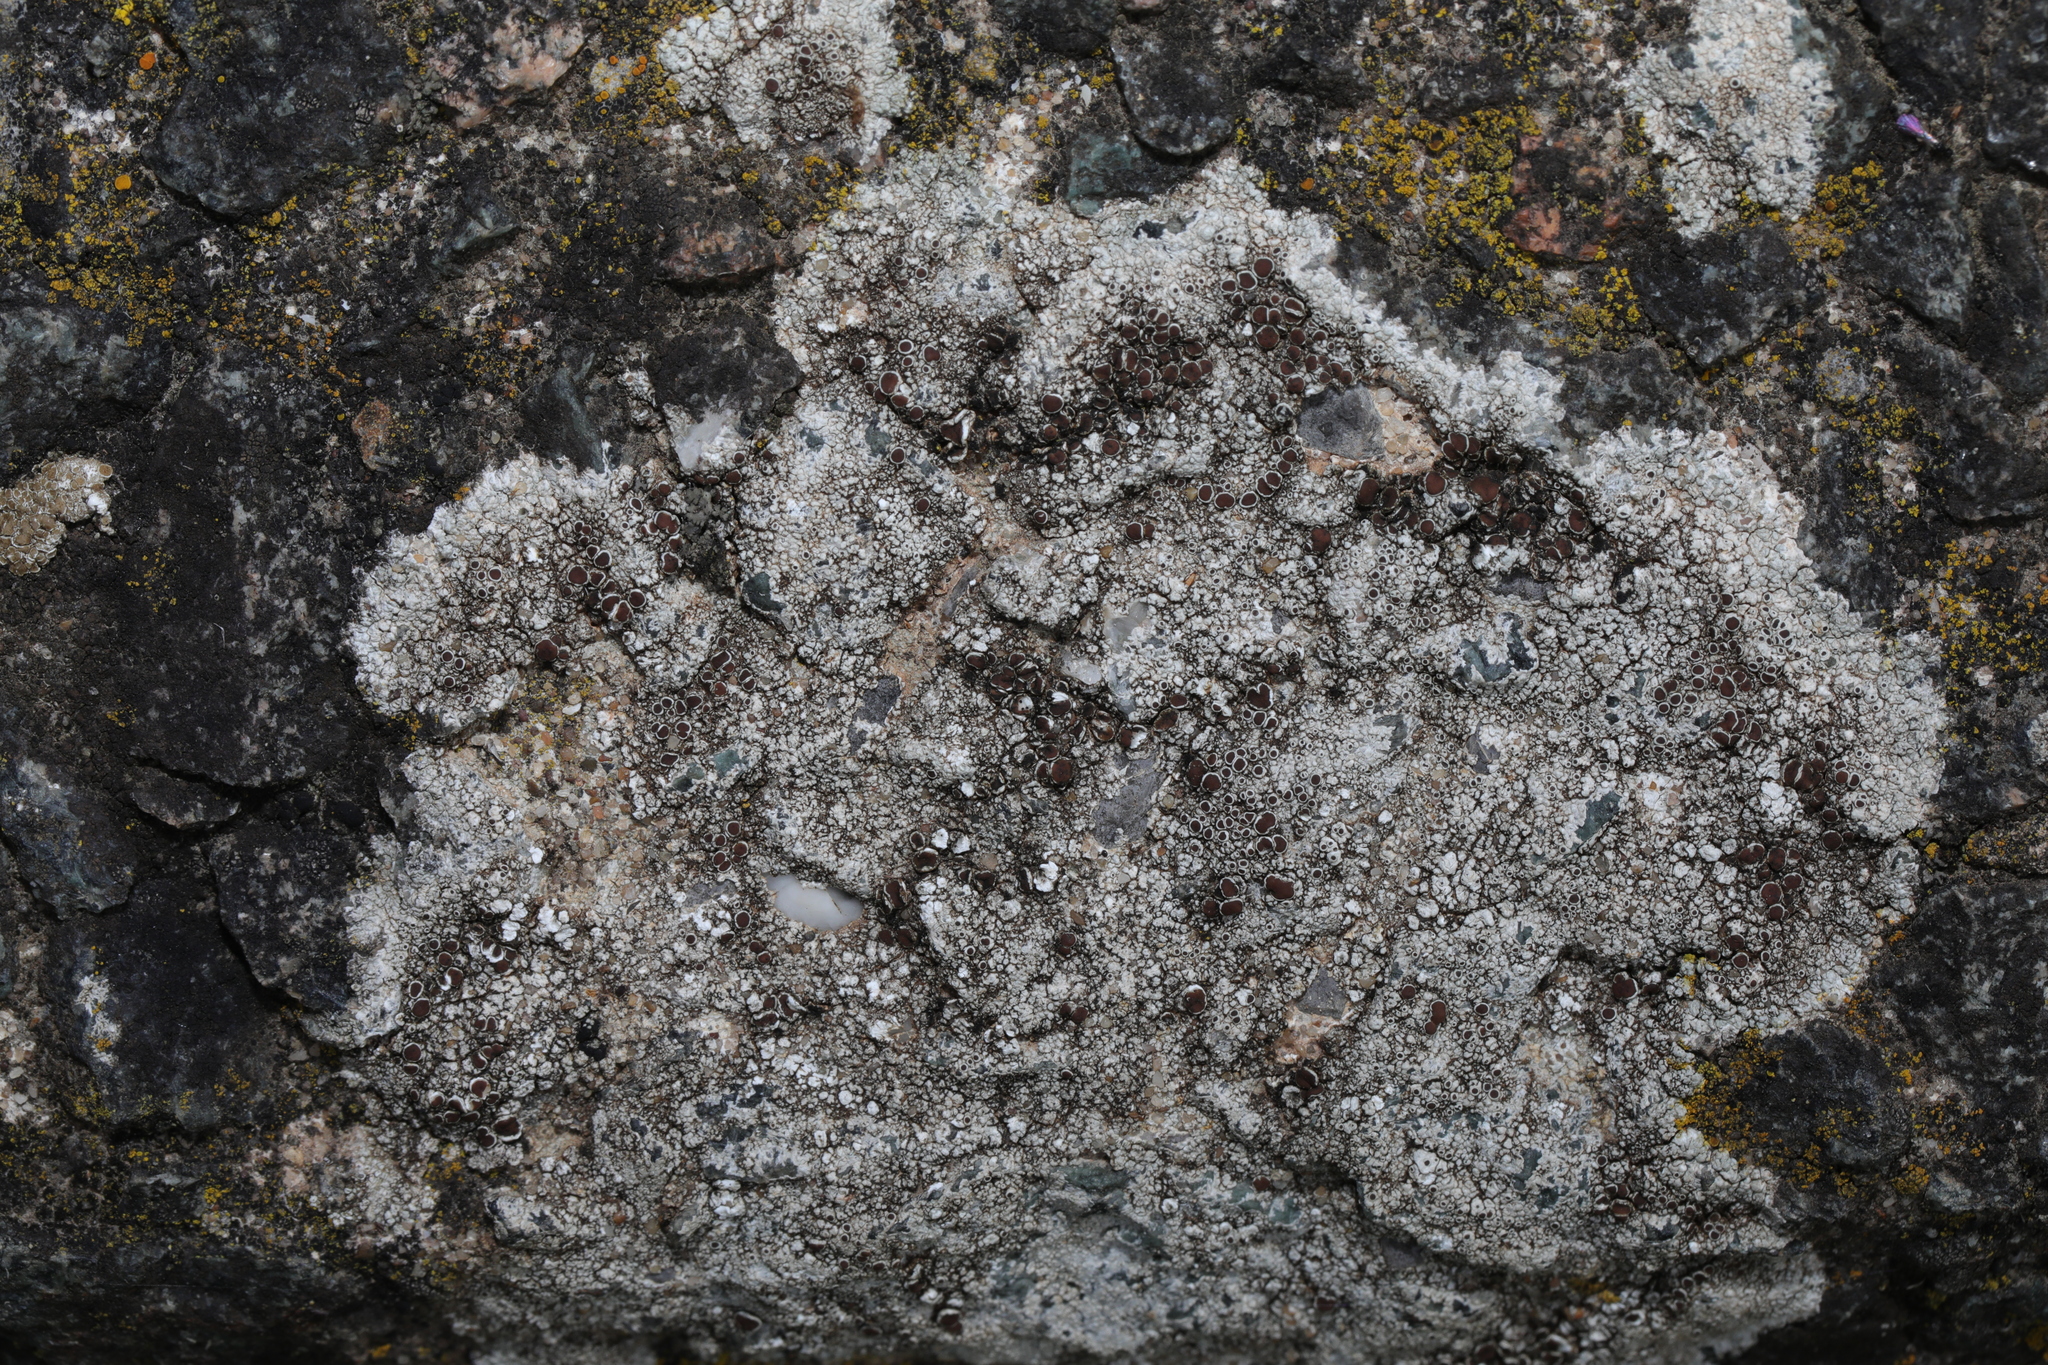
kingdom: Fungi
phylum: Ascomycota
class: Lecanoromycetes
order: Lecanorales
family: Lecanoraceae
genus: Lecanora
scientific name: Lecanora campestris
